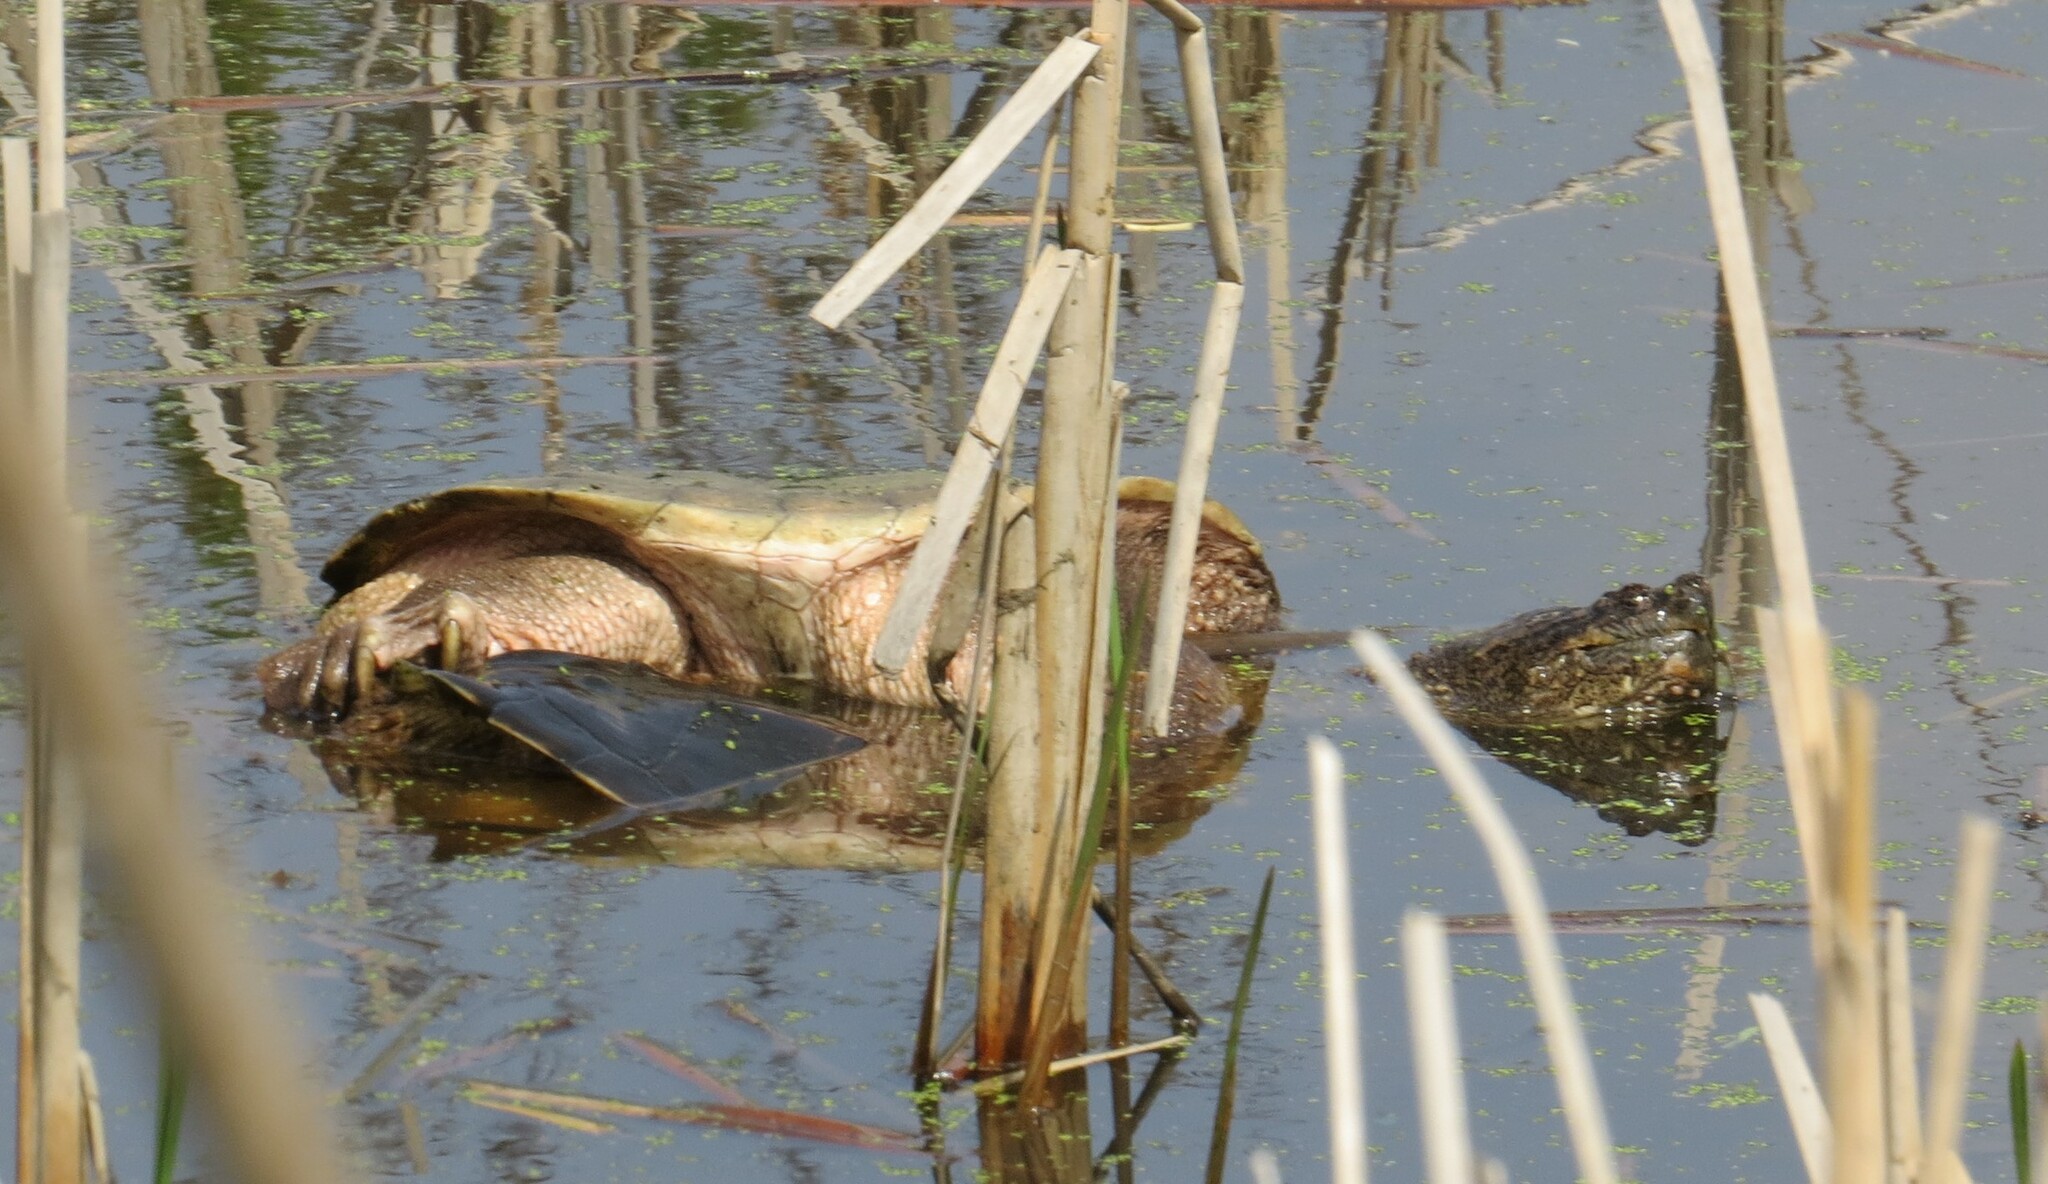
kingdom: Animalia
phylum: Chordata
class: Testudines
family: Chelydridae
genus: Chelydra
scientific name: Chelydra serpentina
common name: Common snapping turtle
